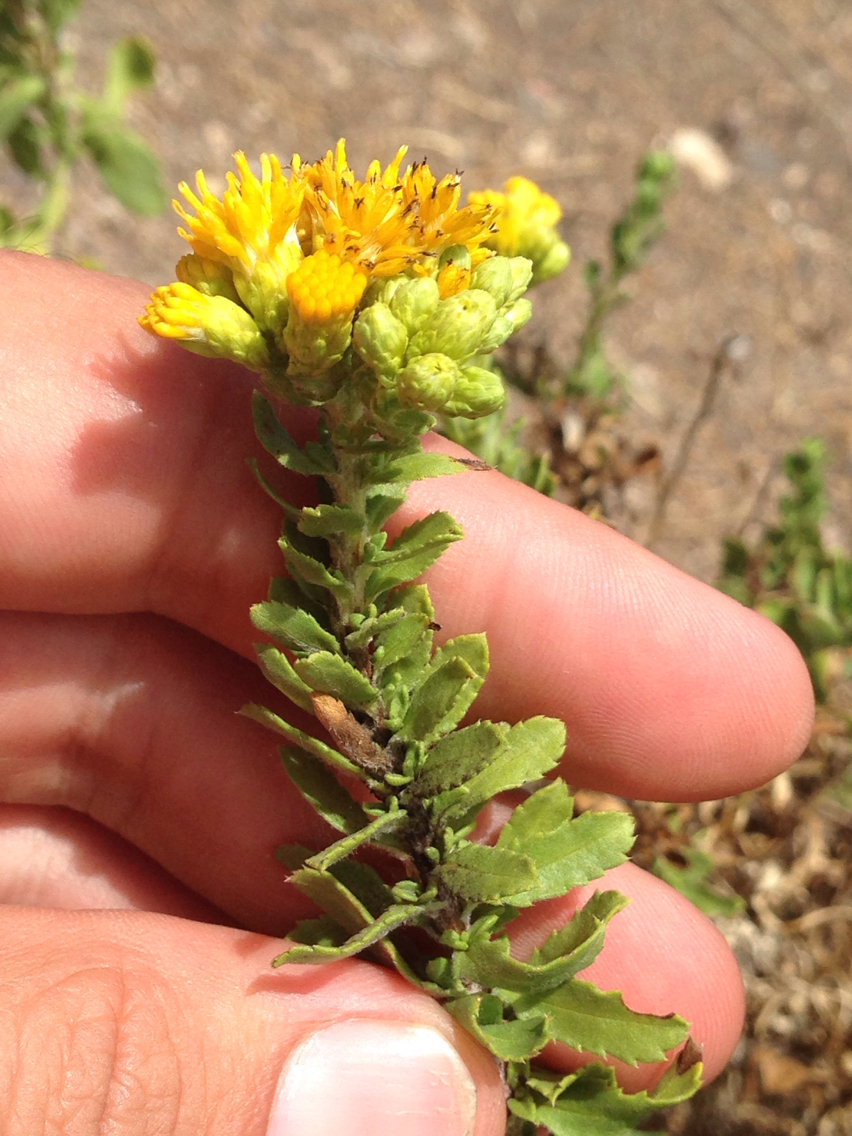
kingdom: Plantae
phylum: Tracheophyta
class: Magnoliopsida
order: Asterales
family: Asteraceae
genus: Isocoma
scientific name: Isocoma menziesii
